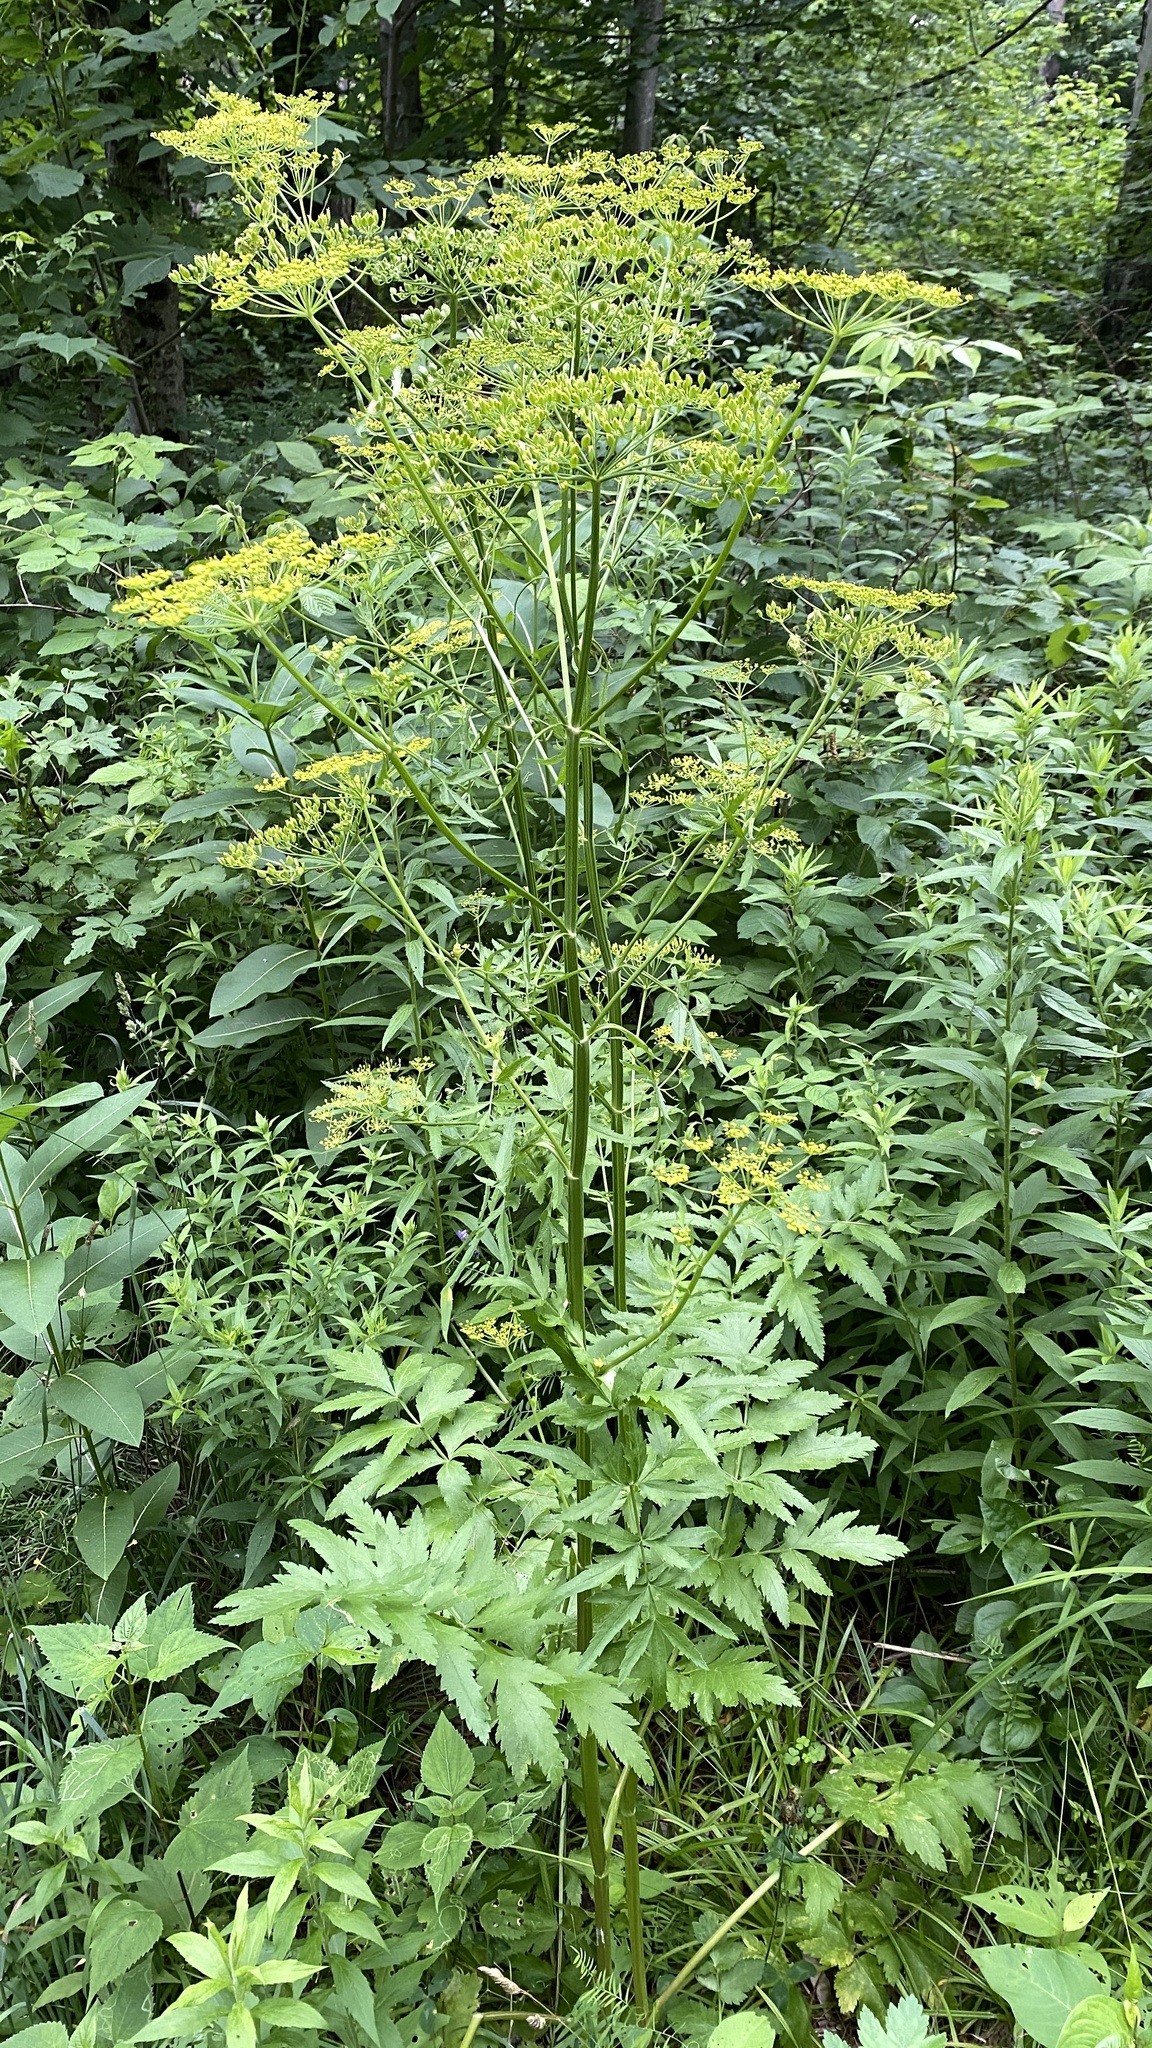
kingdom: Plantae
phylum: Tracheophyta
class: Magnoliopsida
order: Apiales
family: Apiaceae
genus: Pastinaca
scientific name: Pastinaca sativa
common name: Wild parsnip
